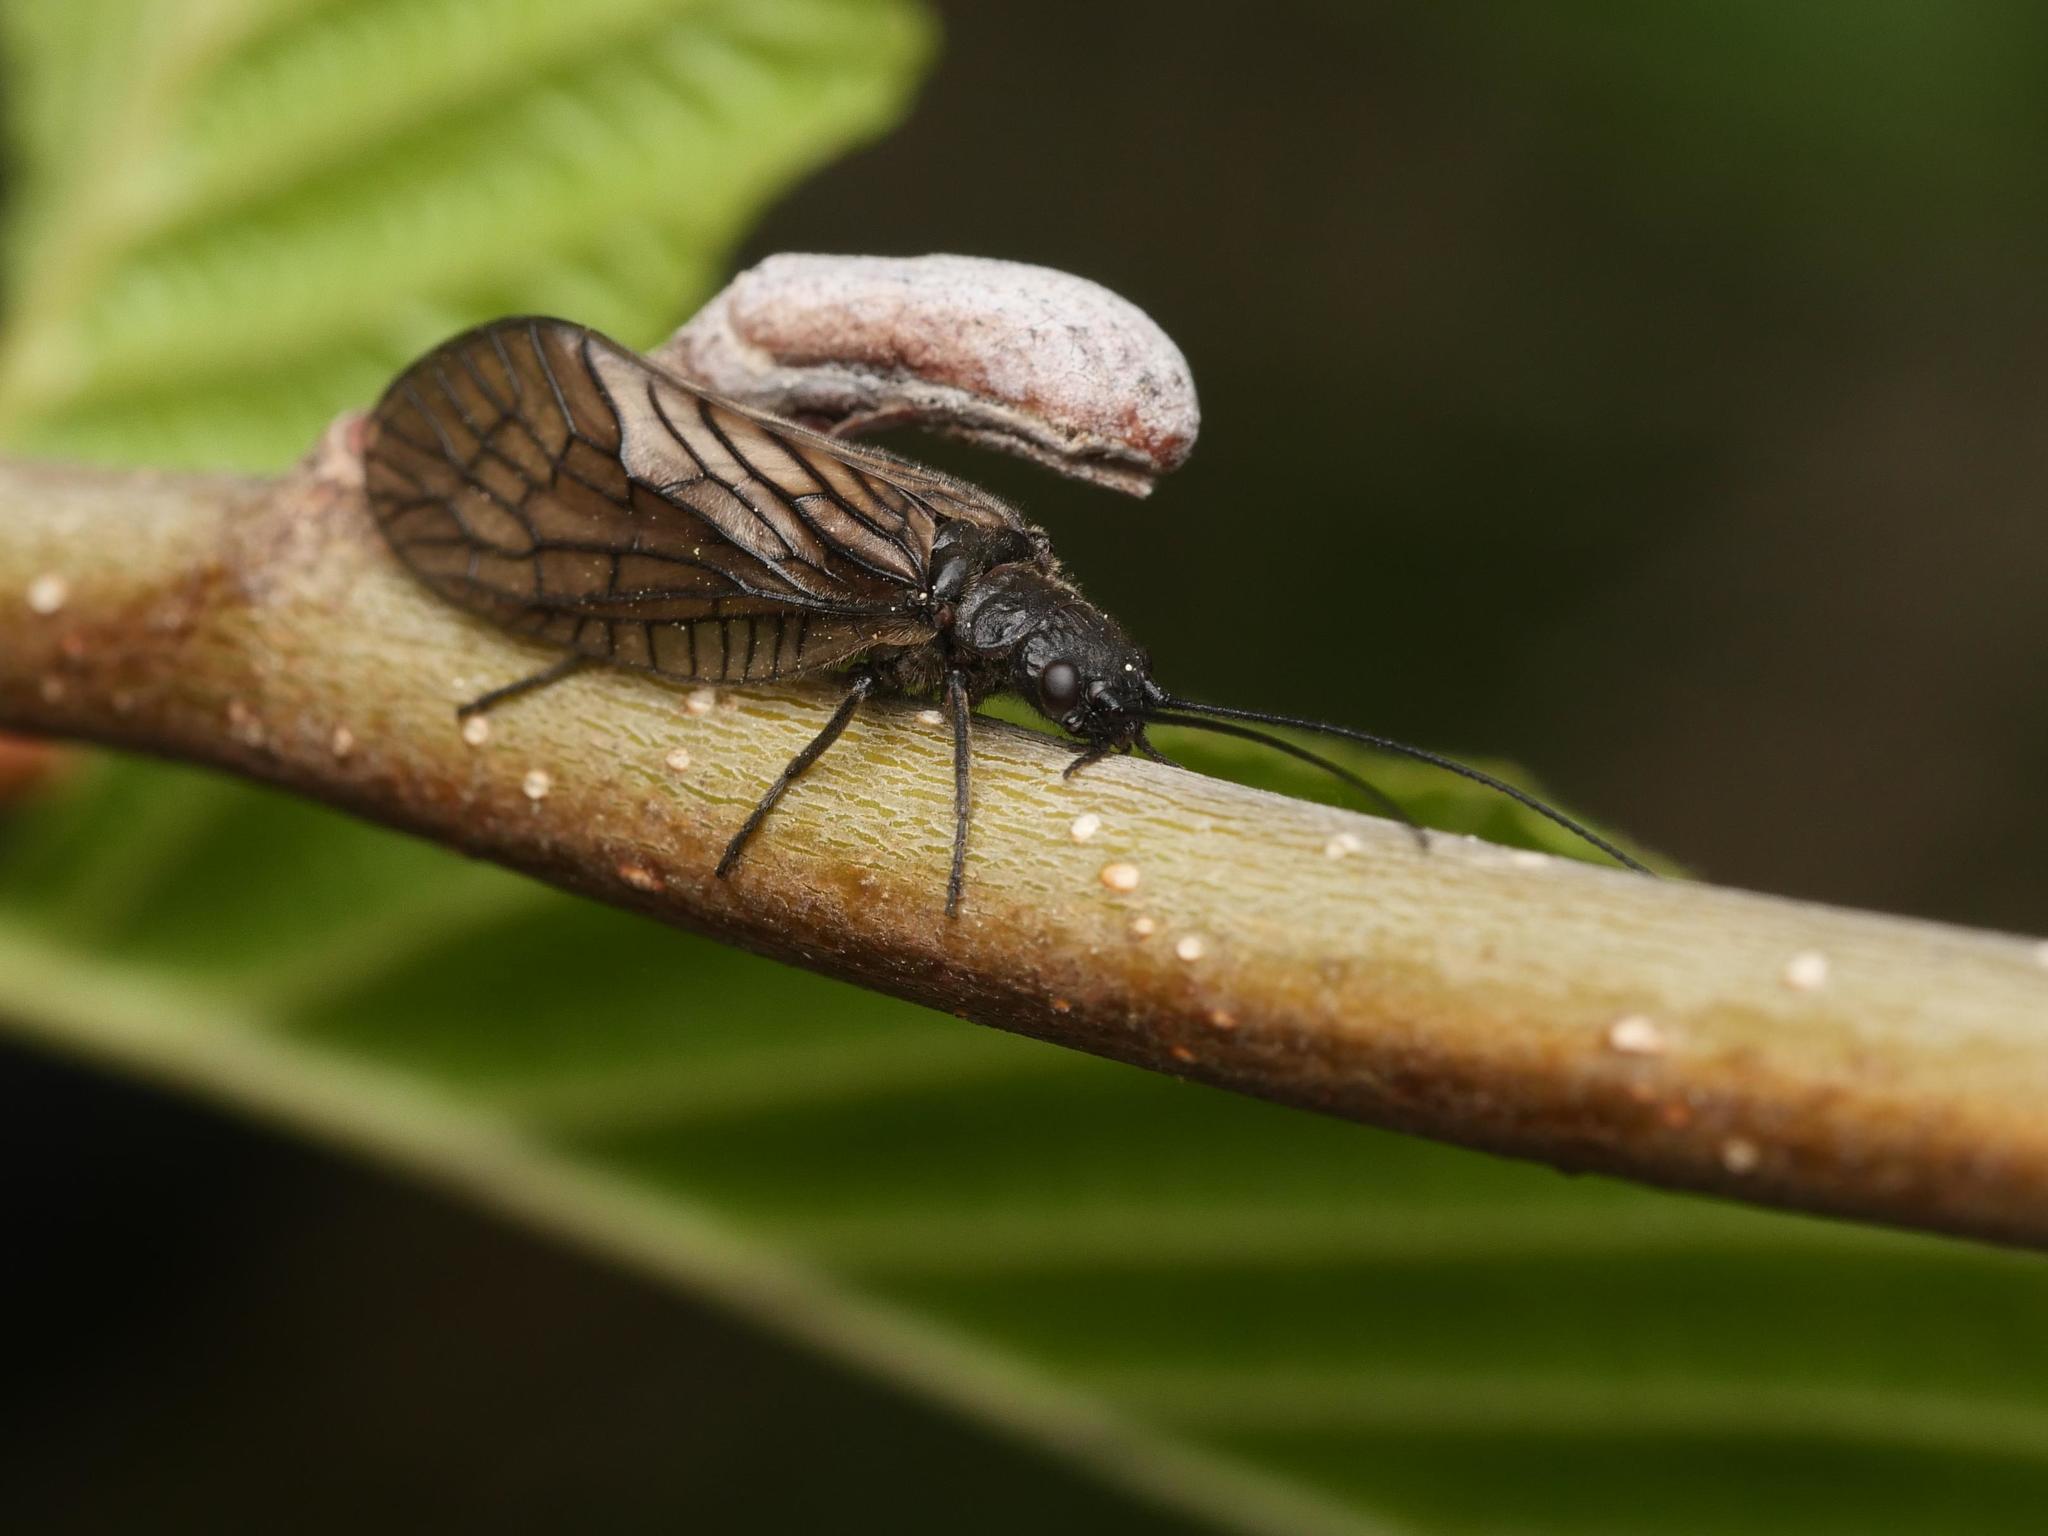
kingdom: Animalia
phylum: Arthropoda
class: Insecta
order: Megaloptera
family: Sialidae
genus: Sialis
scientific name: Sialis
